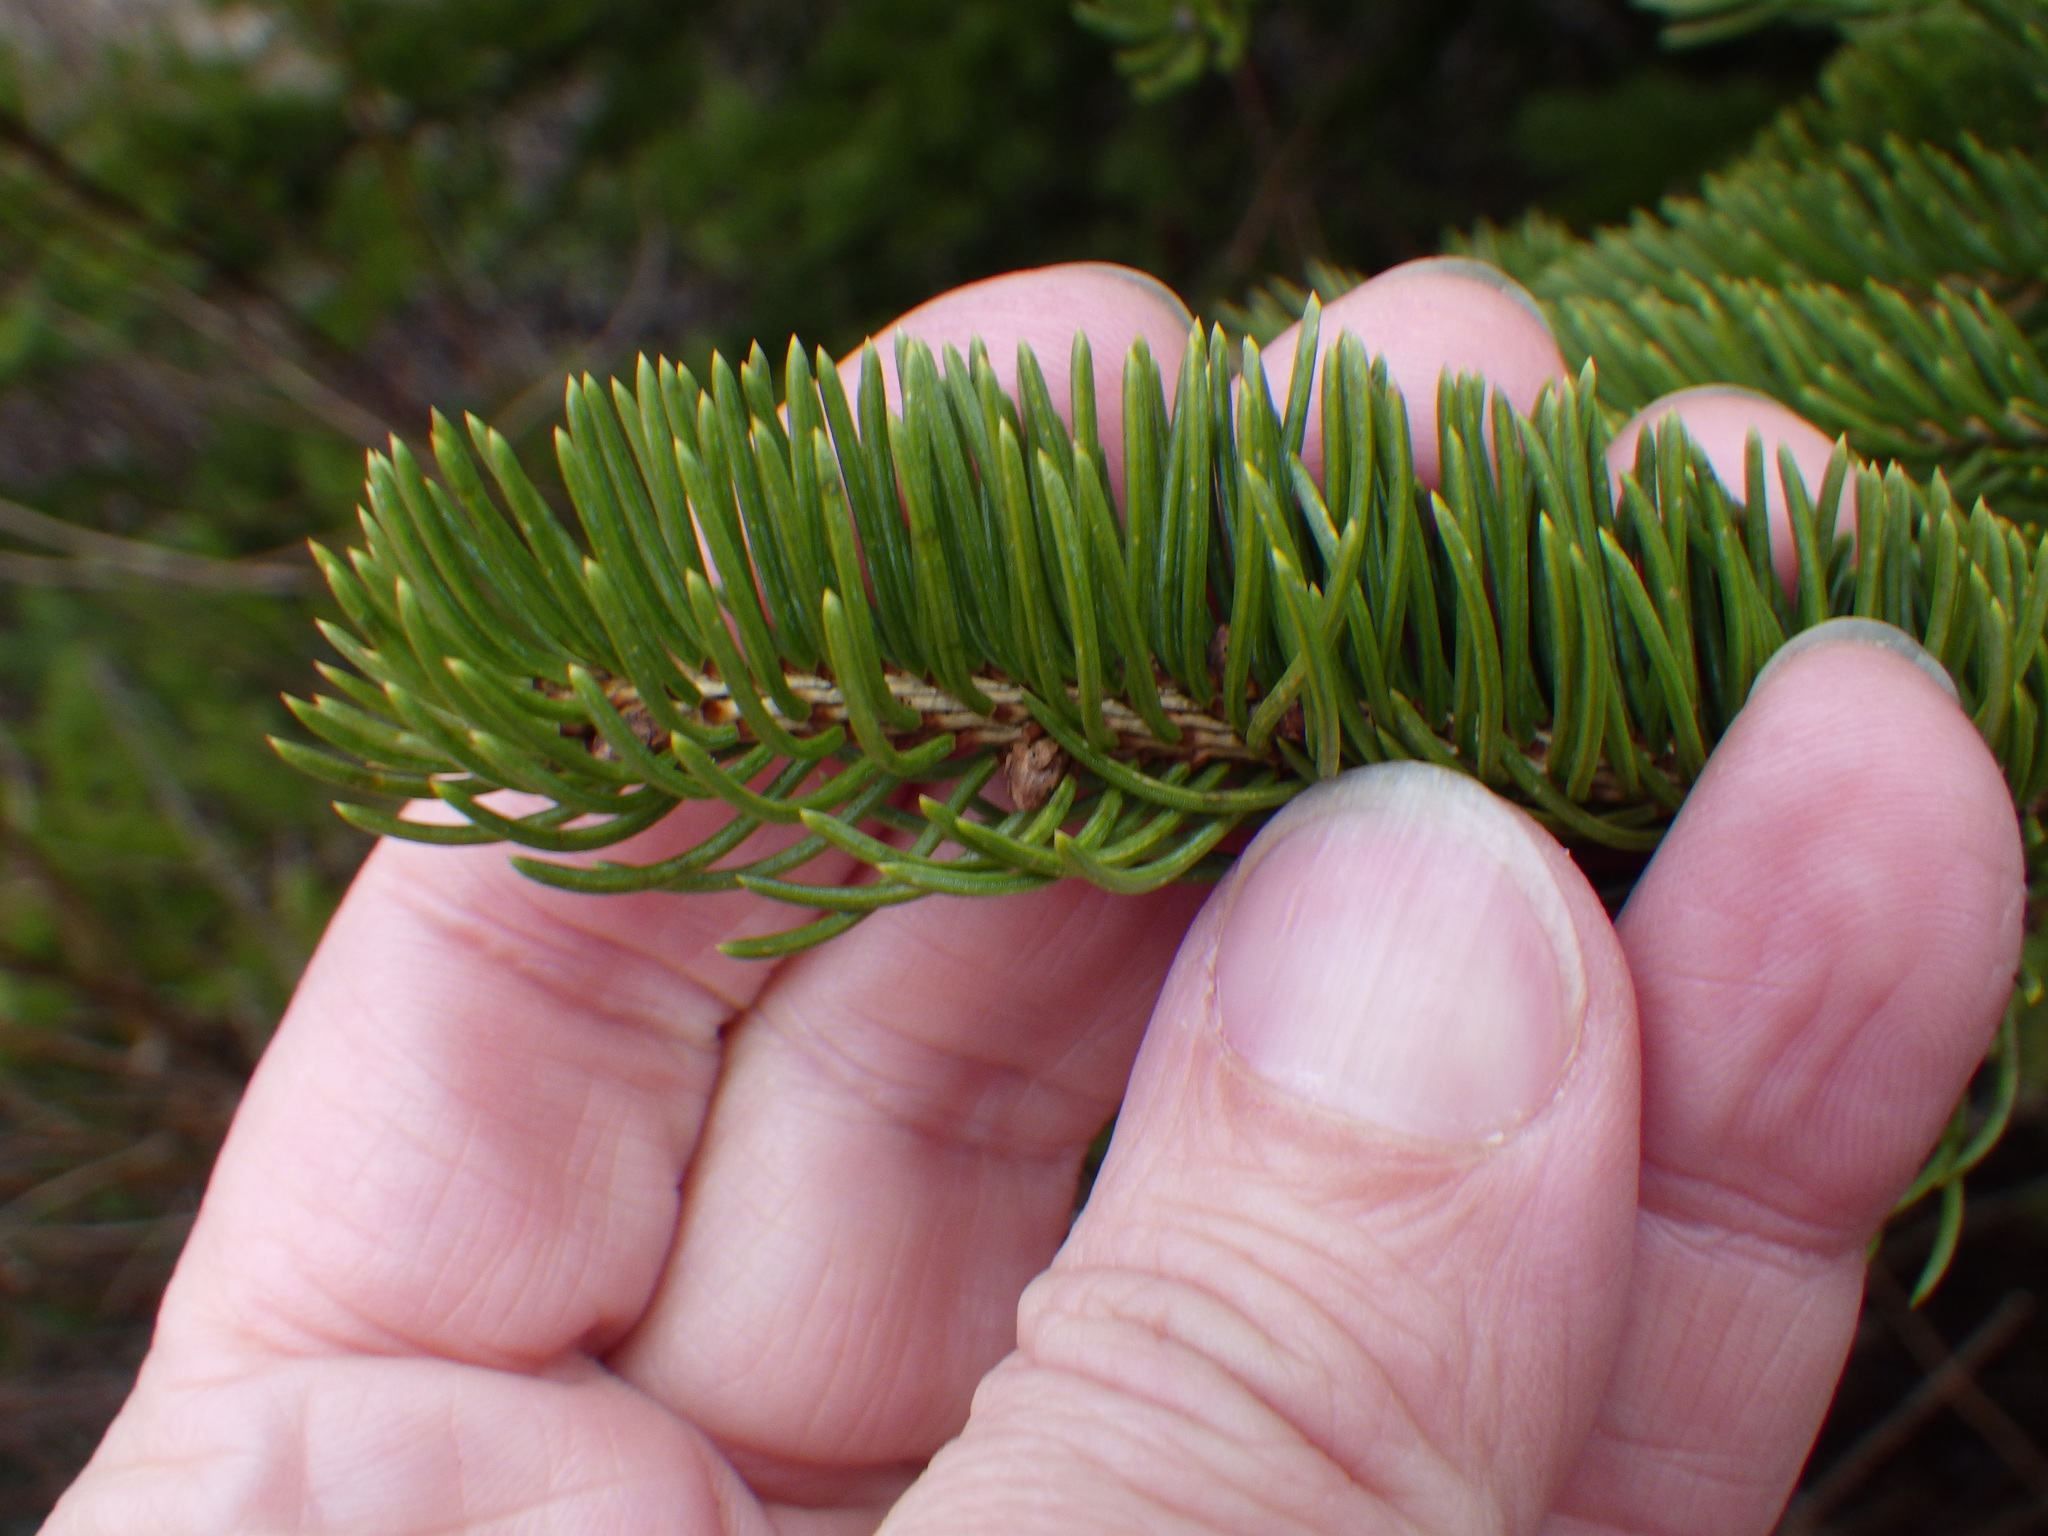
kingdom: Plantae
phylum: Tracheophyta
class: Pinopsida
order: Pinales
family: Pinaceae
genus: Picea
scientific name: Picea glauca
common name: White spruce
